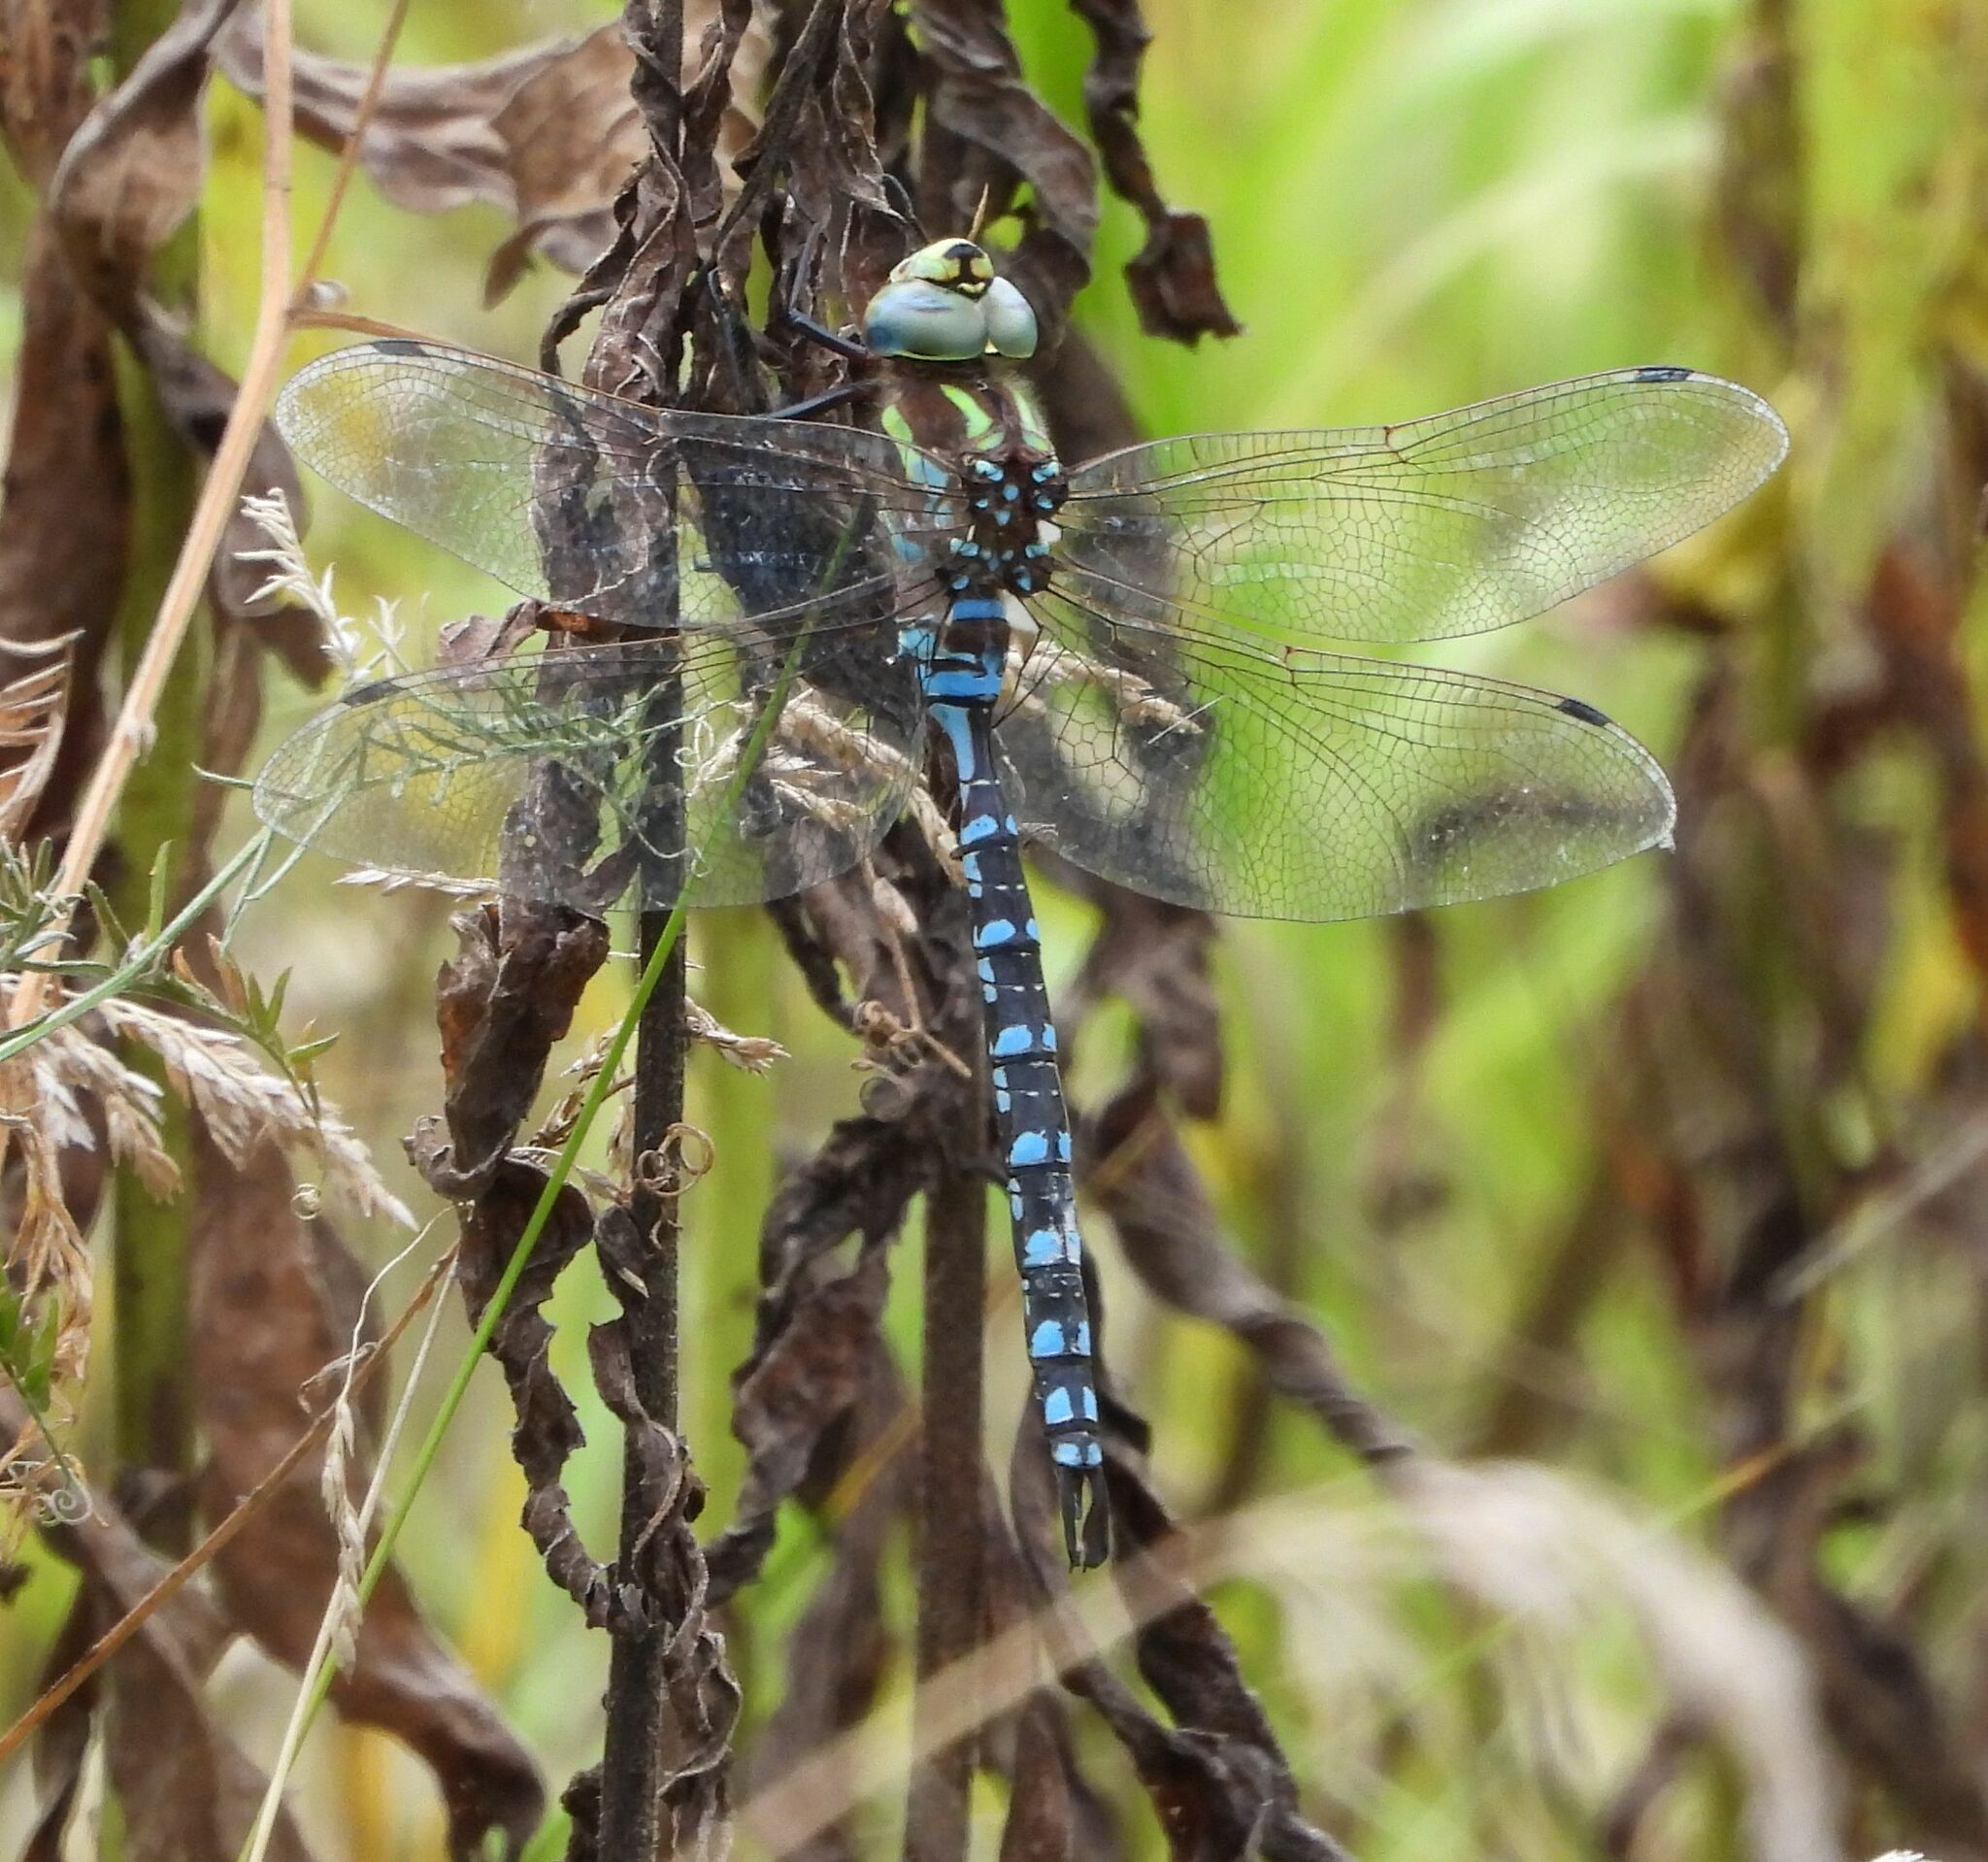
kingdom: Animalia
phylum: Arthropoda
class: Insecta
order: Odonata
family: Aeshnidae
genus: Aeshna
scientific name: Aeshna constricta
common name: Lance-tipped darner
